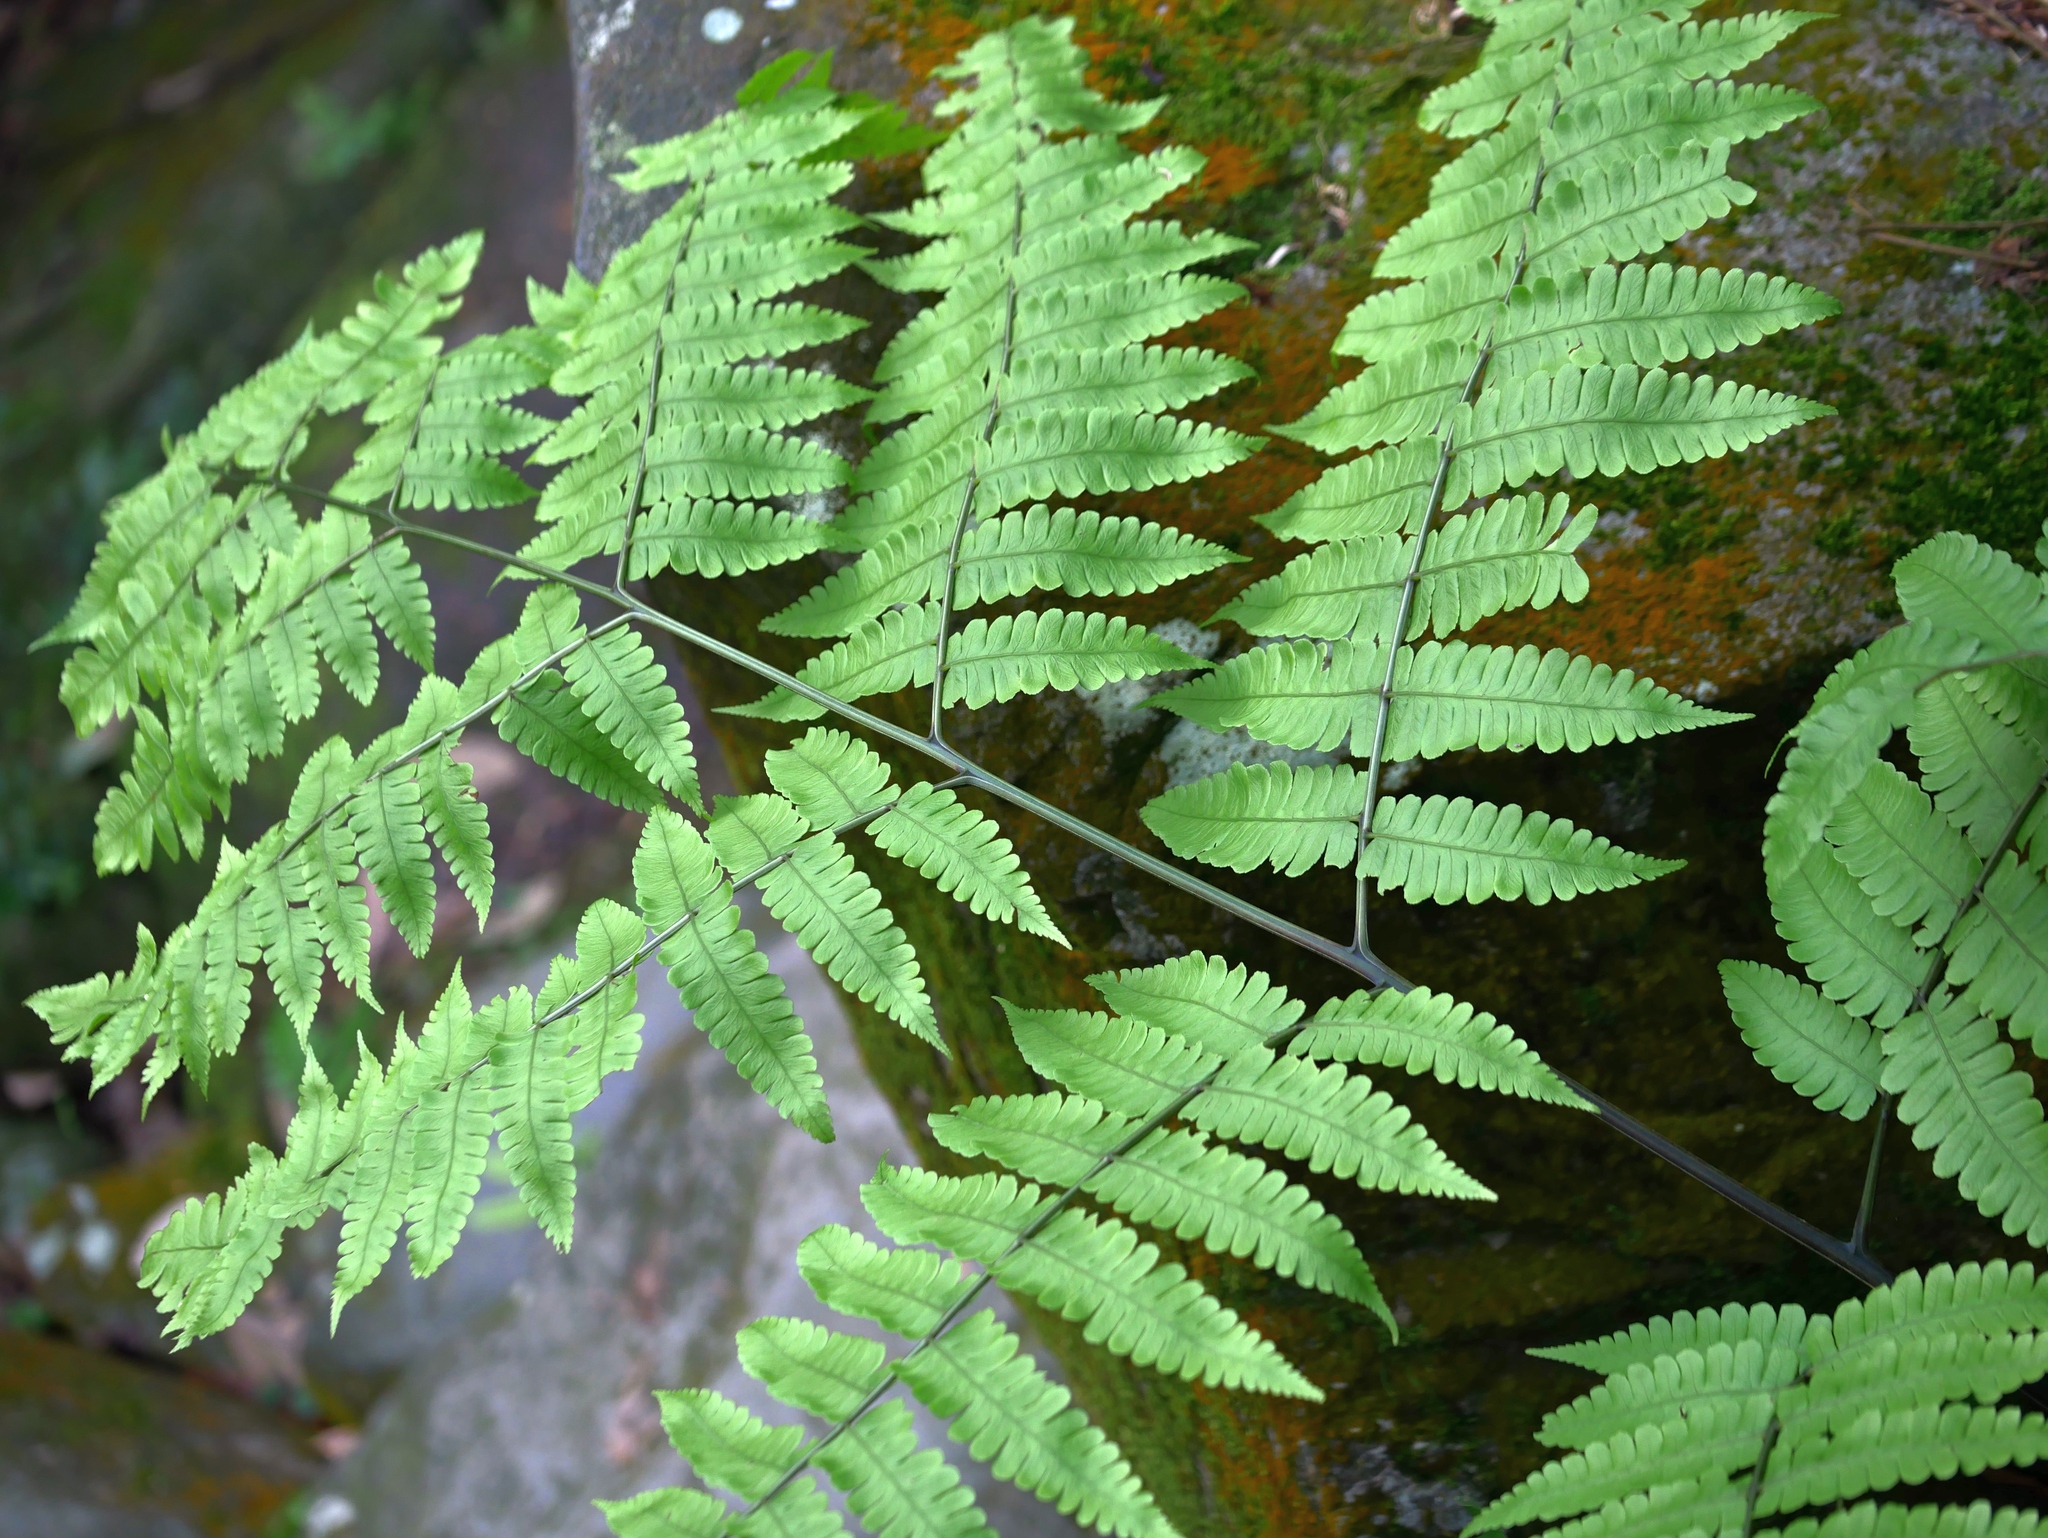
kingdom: Plantae
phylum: Tracheophyta
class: Polypodiopsida
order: Polypodiales
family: Athyriaceae
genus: Diplazium
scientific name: Diplazium doederleinii
